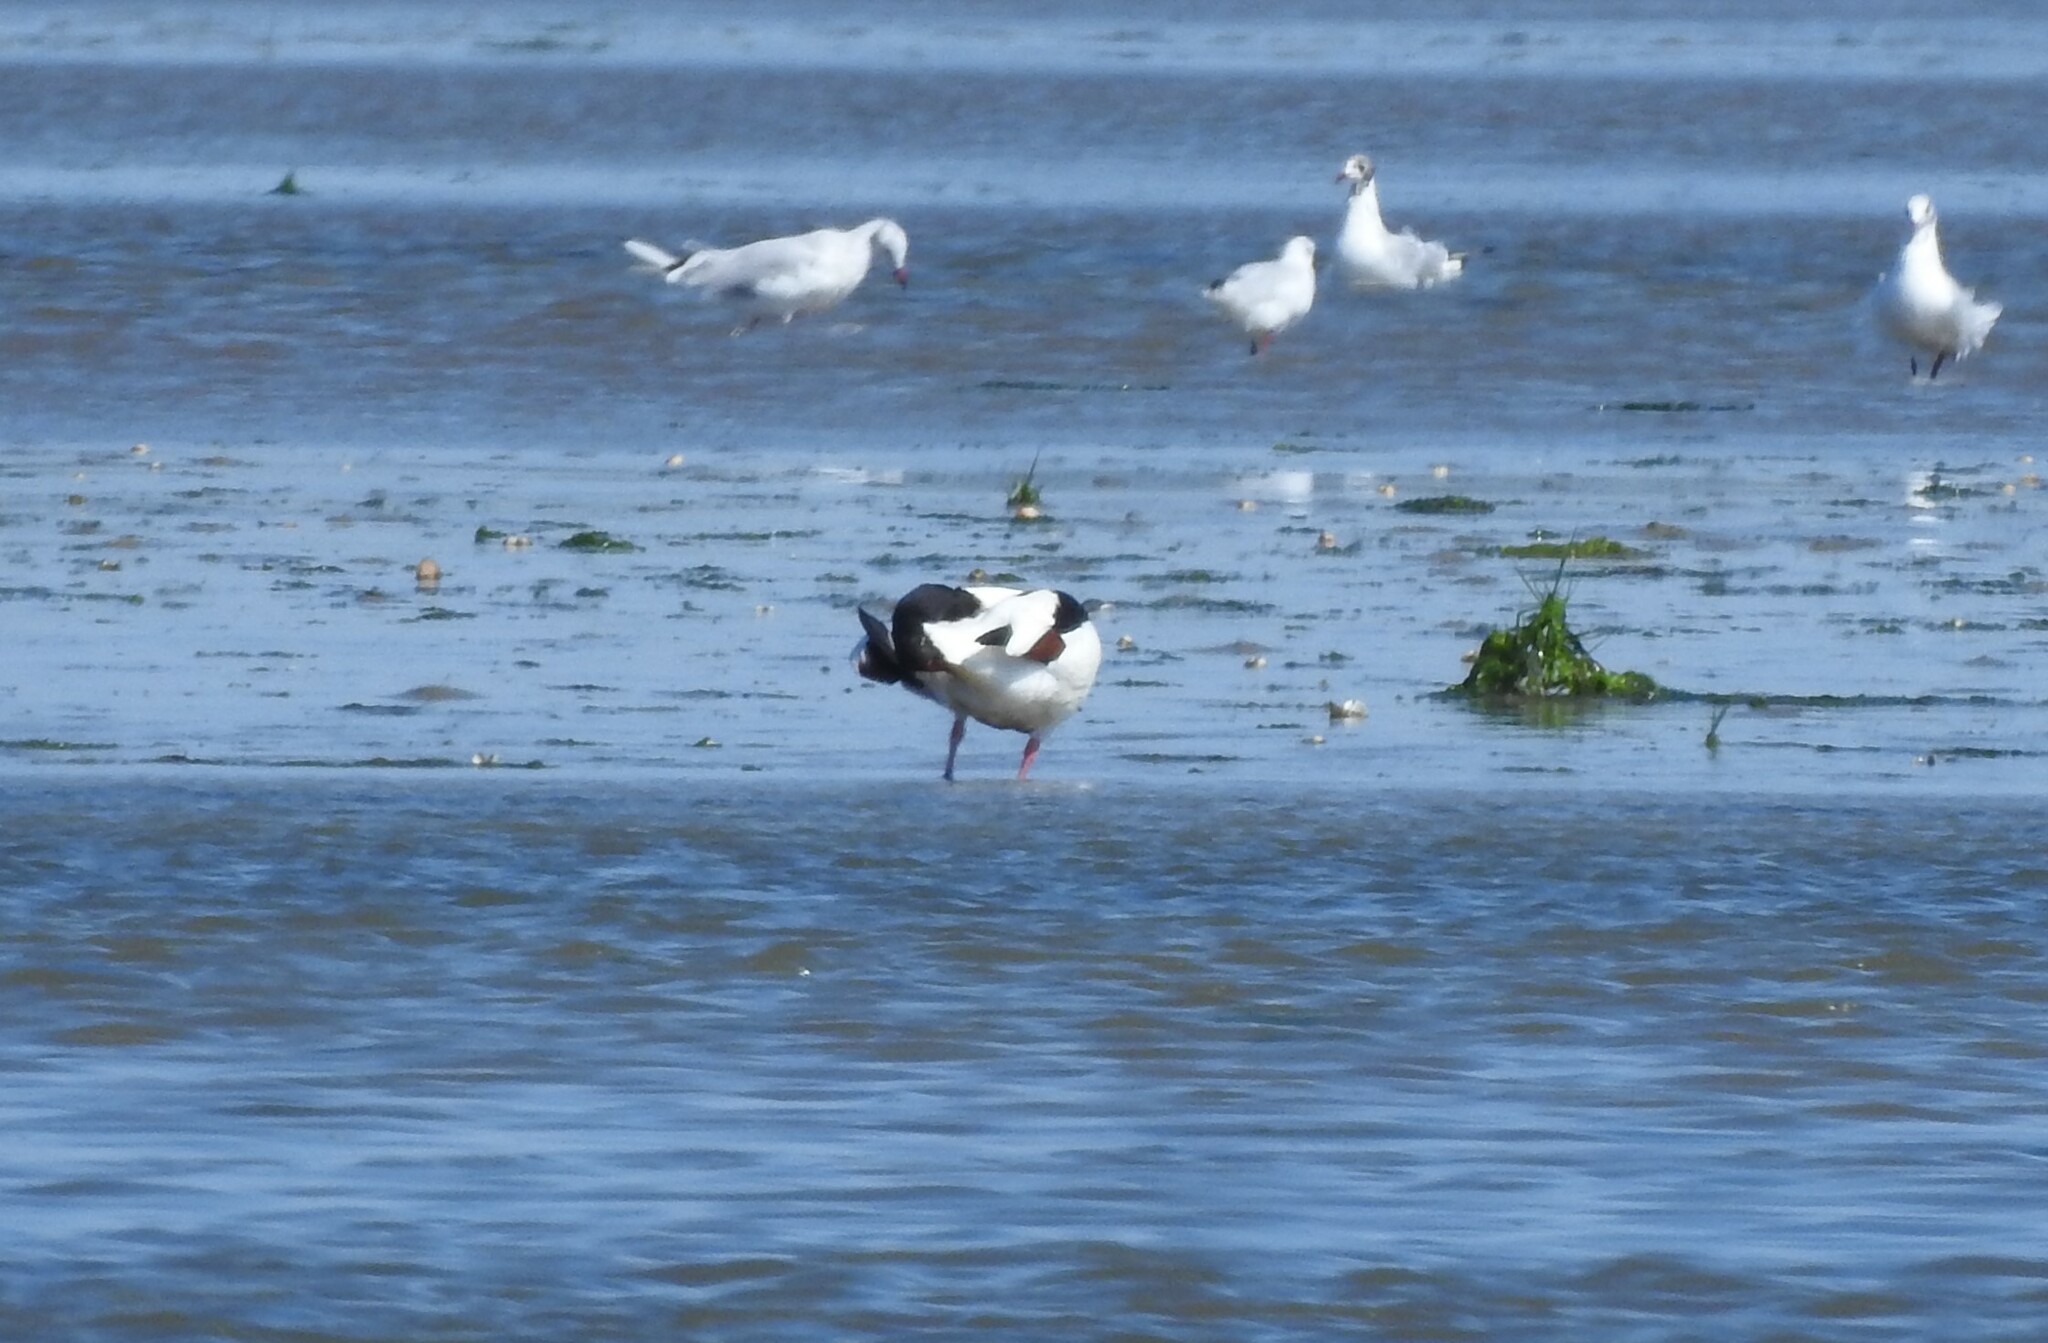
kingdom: Animalia
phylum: Chordata
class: Aves
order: Anseriformes
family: Anatidae
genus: Tadorna
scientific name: Tadorna tadorna
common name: Common shelduck
